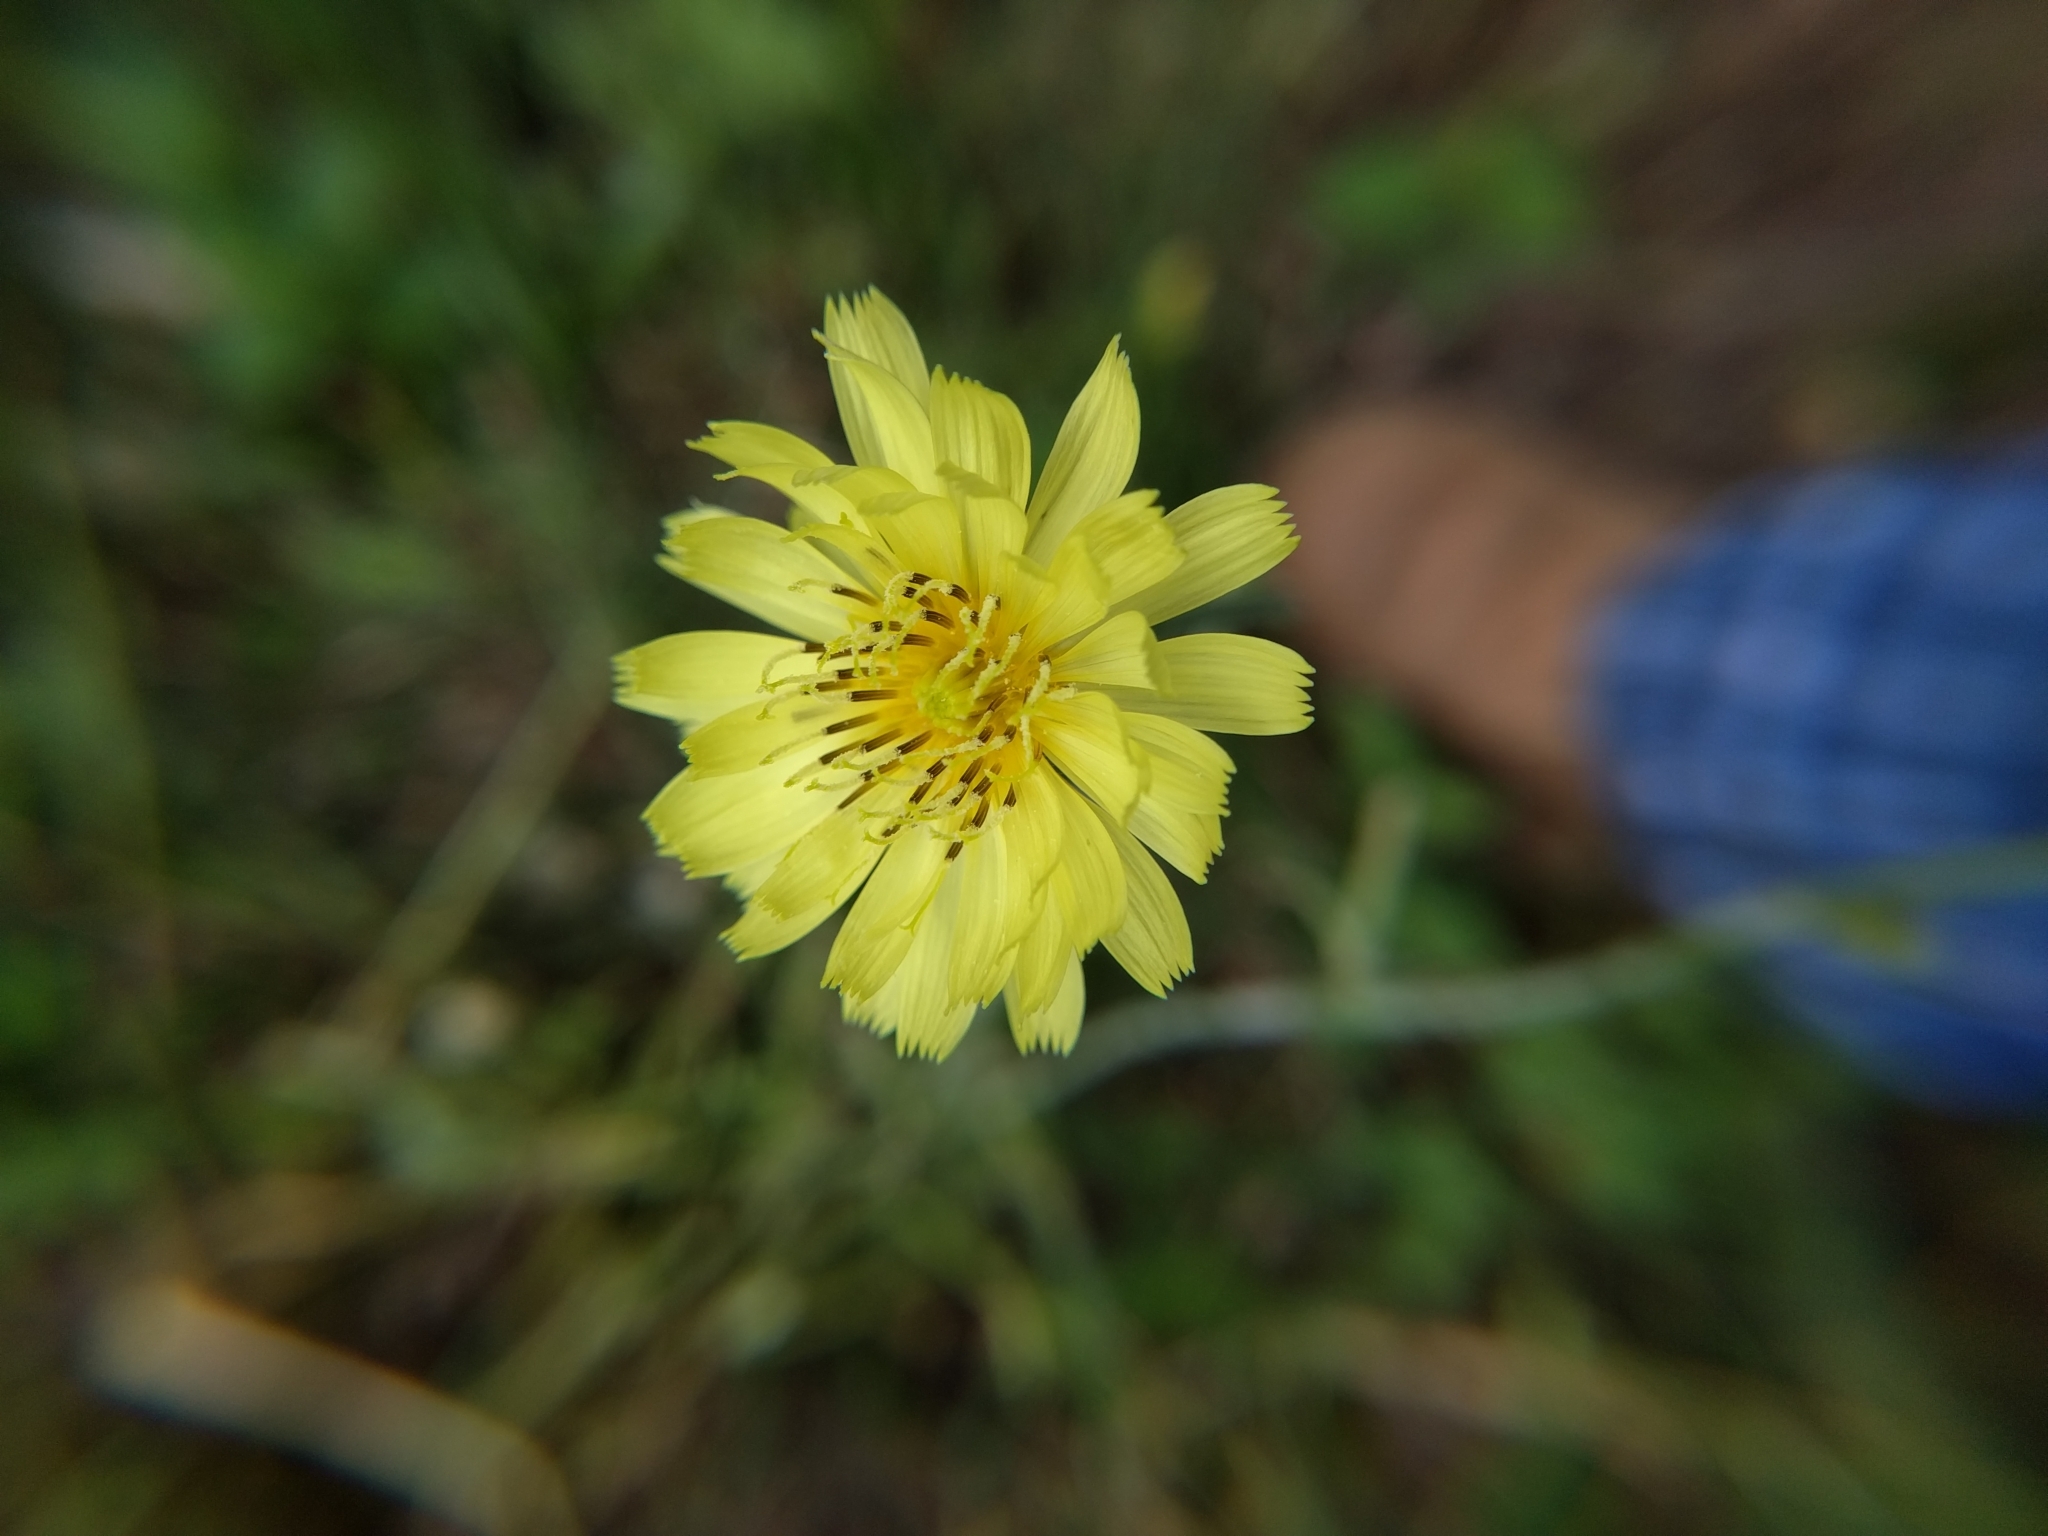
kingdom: Plantae
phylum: Tracheophyta
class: Magnoliopsida
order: Asterales
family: Asteraceae
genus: Pyrrhopappus
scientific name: Pyrrhopappus pauciflorus
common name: Texas false dandelion
